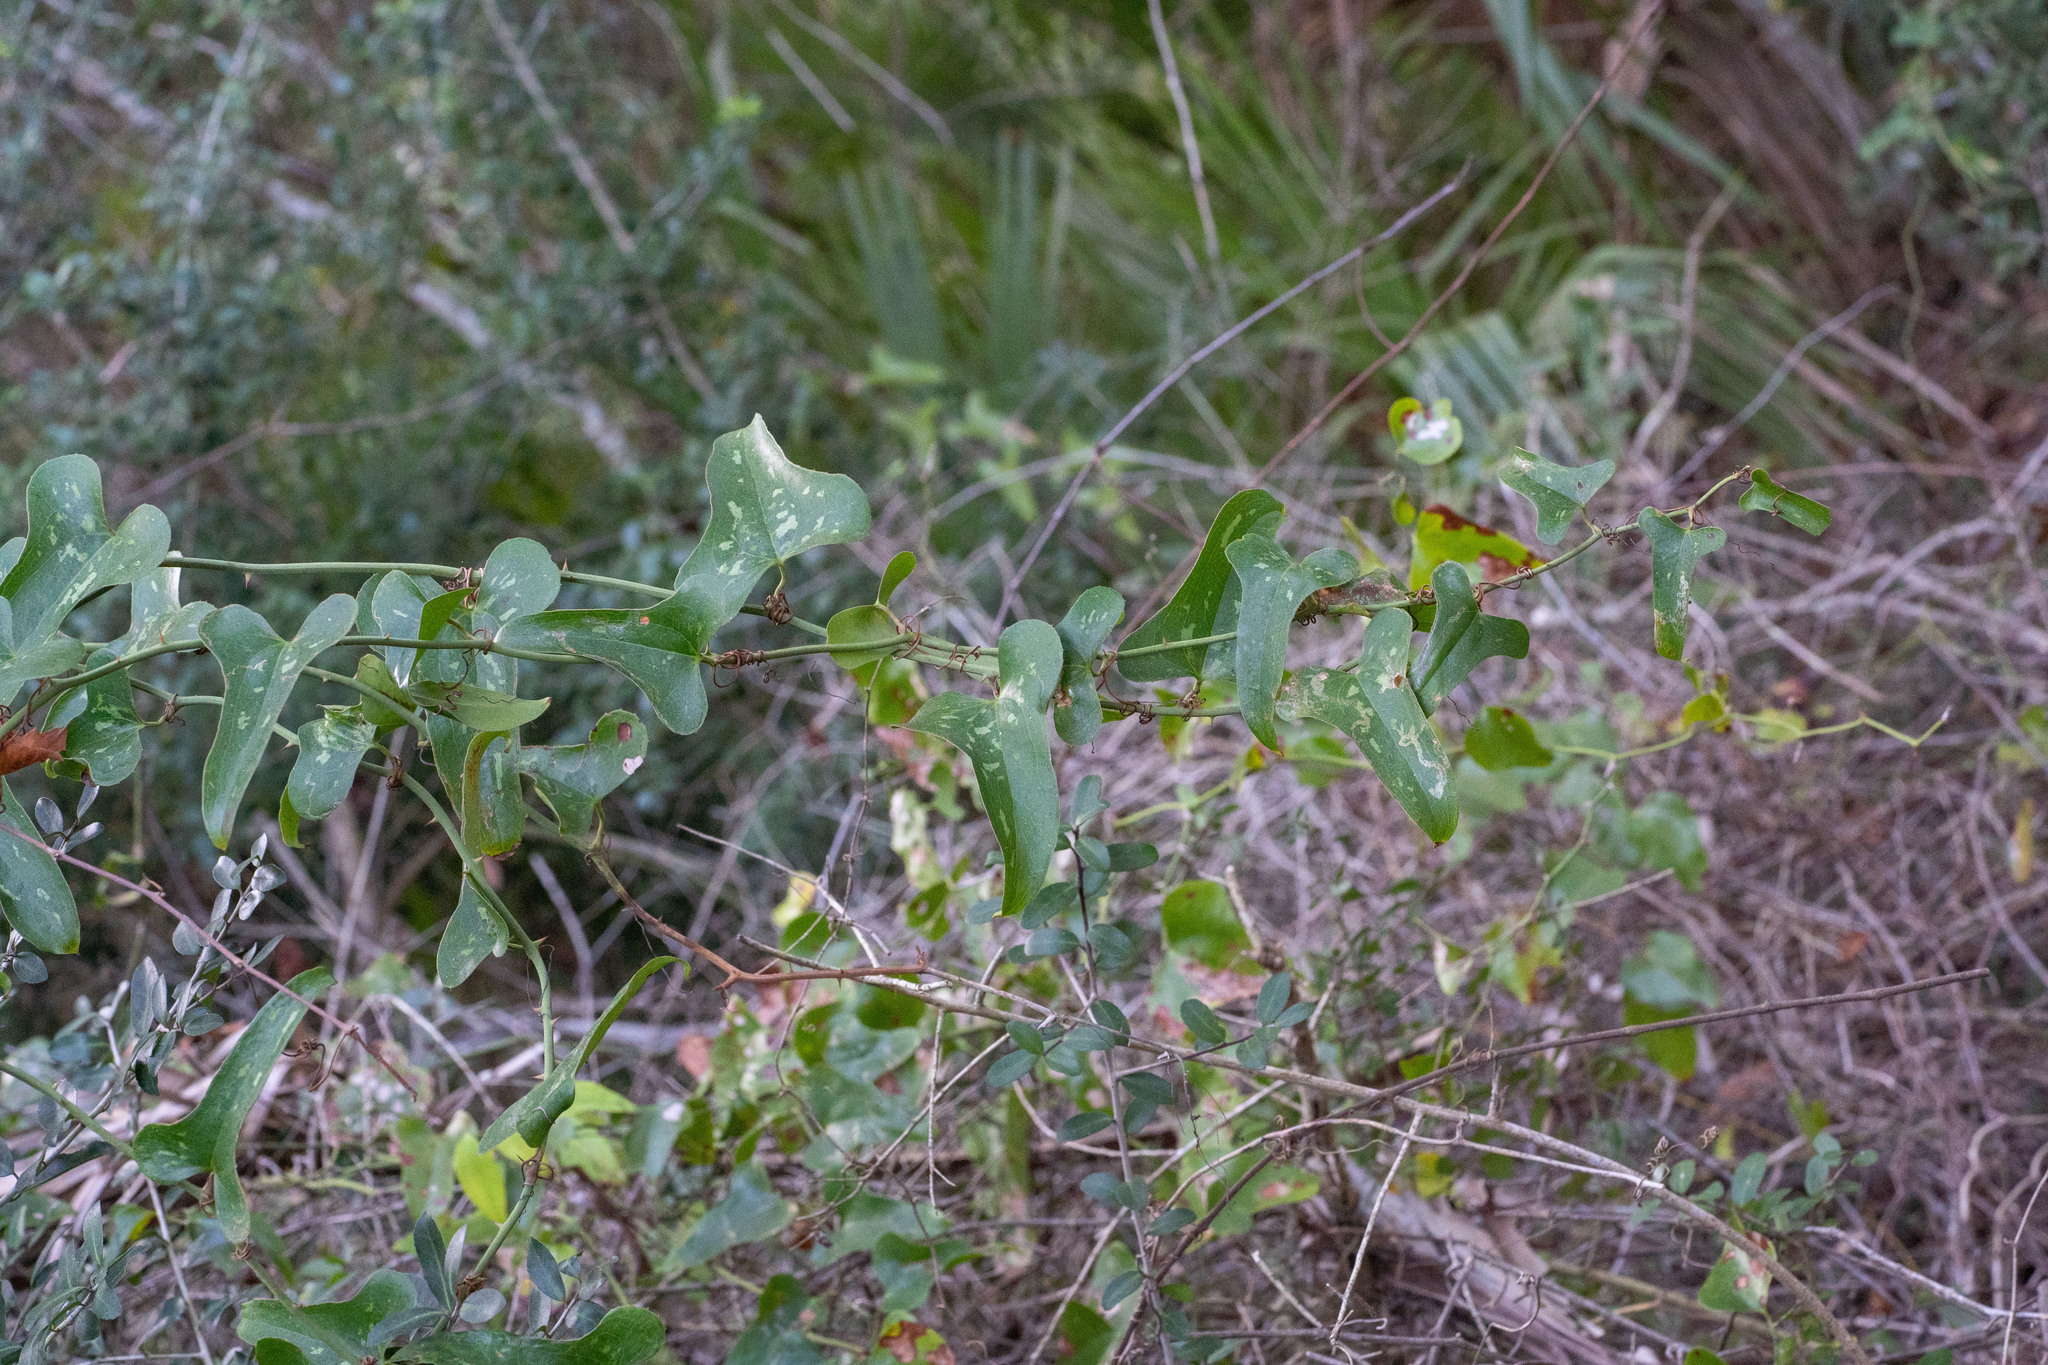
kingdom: Plantae
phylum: Tracheophyta
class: Liliopsida
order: Liliales
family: Smilacaceae
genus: Smilax
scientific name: Smilax bona-nox
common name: Catbrier
